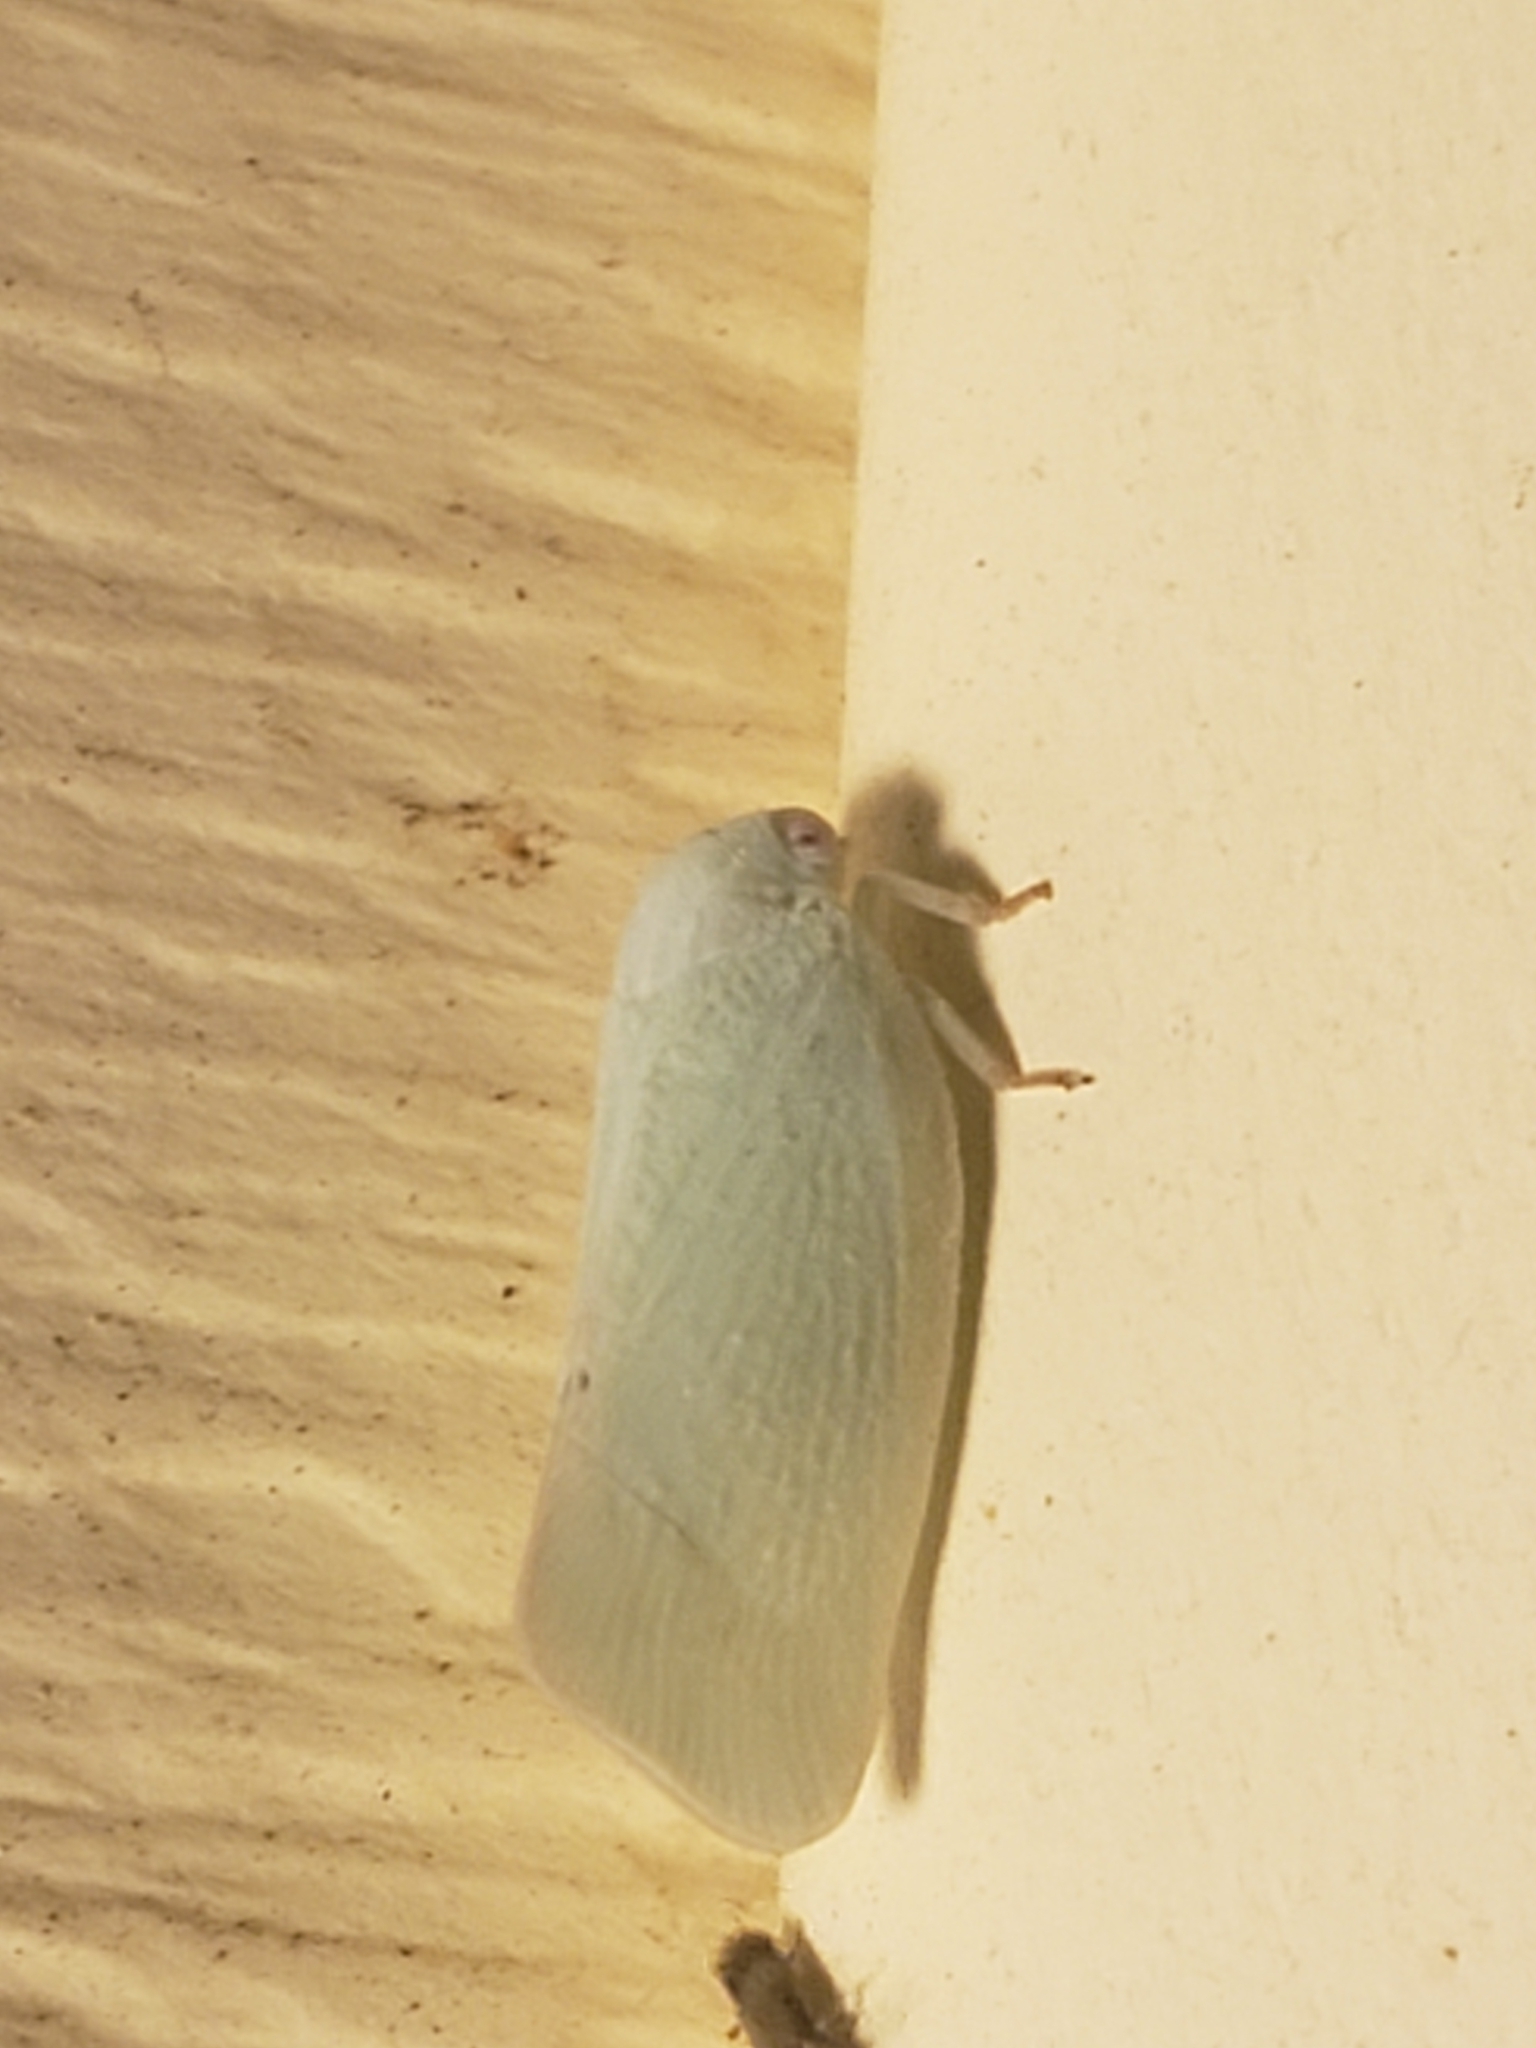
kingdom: Animalia
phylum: Arthropoda
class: Insecta
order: Hemiptera
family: Flatidae
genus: Flatormenis
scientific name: Flatormenis proxima
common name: Northern flatid planthopper
